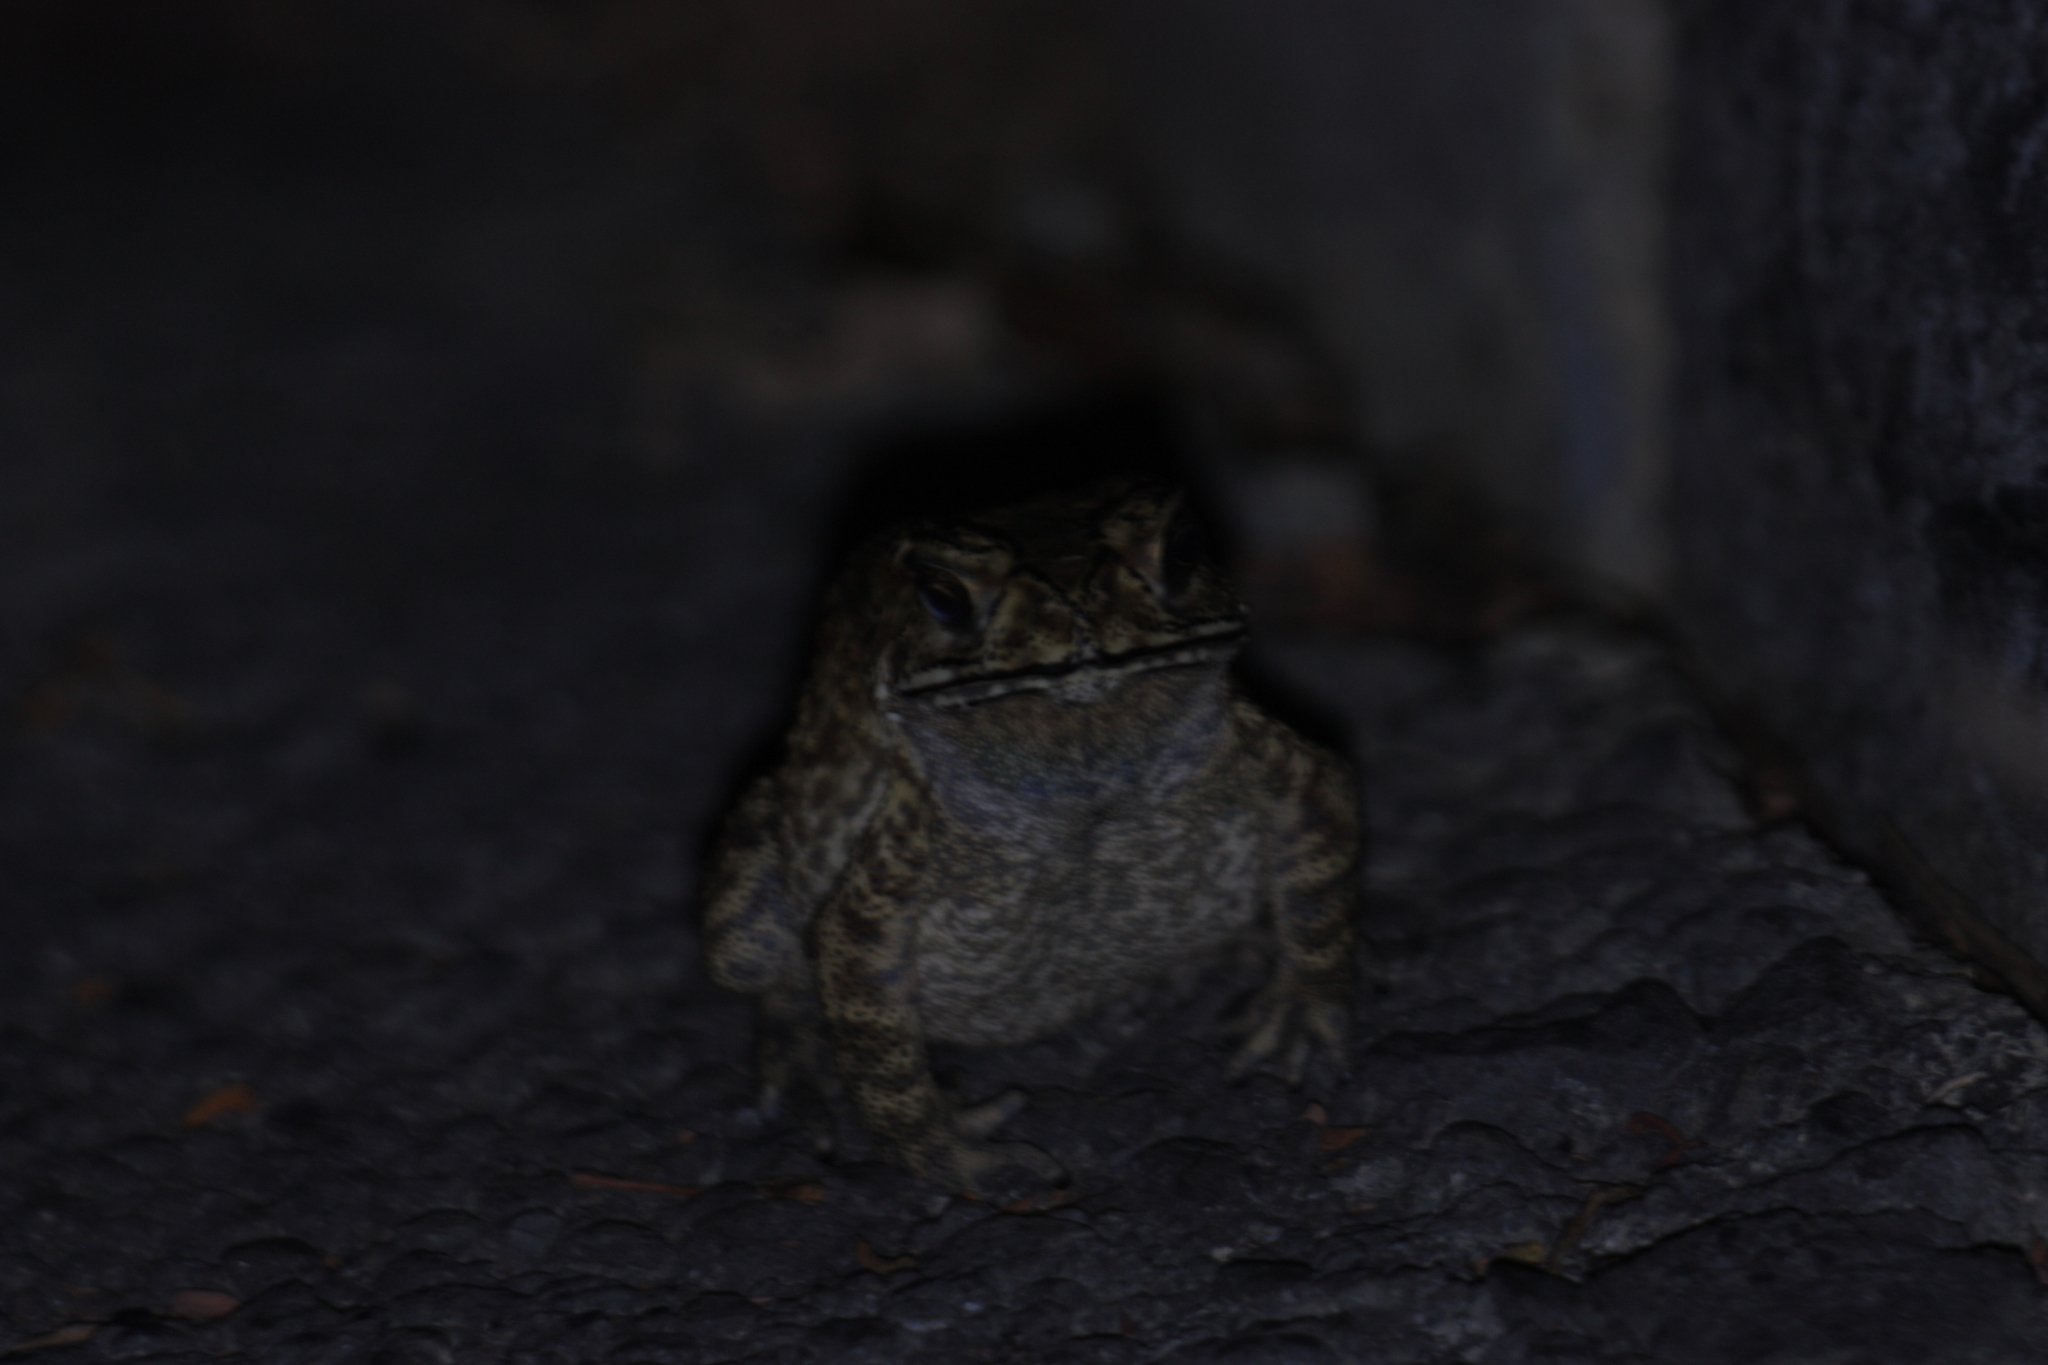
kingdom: Animalia
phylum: Chordata
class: Amphibia
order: Anura
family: Bufonidae
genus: Duttaphrynus
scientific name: Duttaphrynus melanostictus
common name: Common sunda toad
